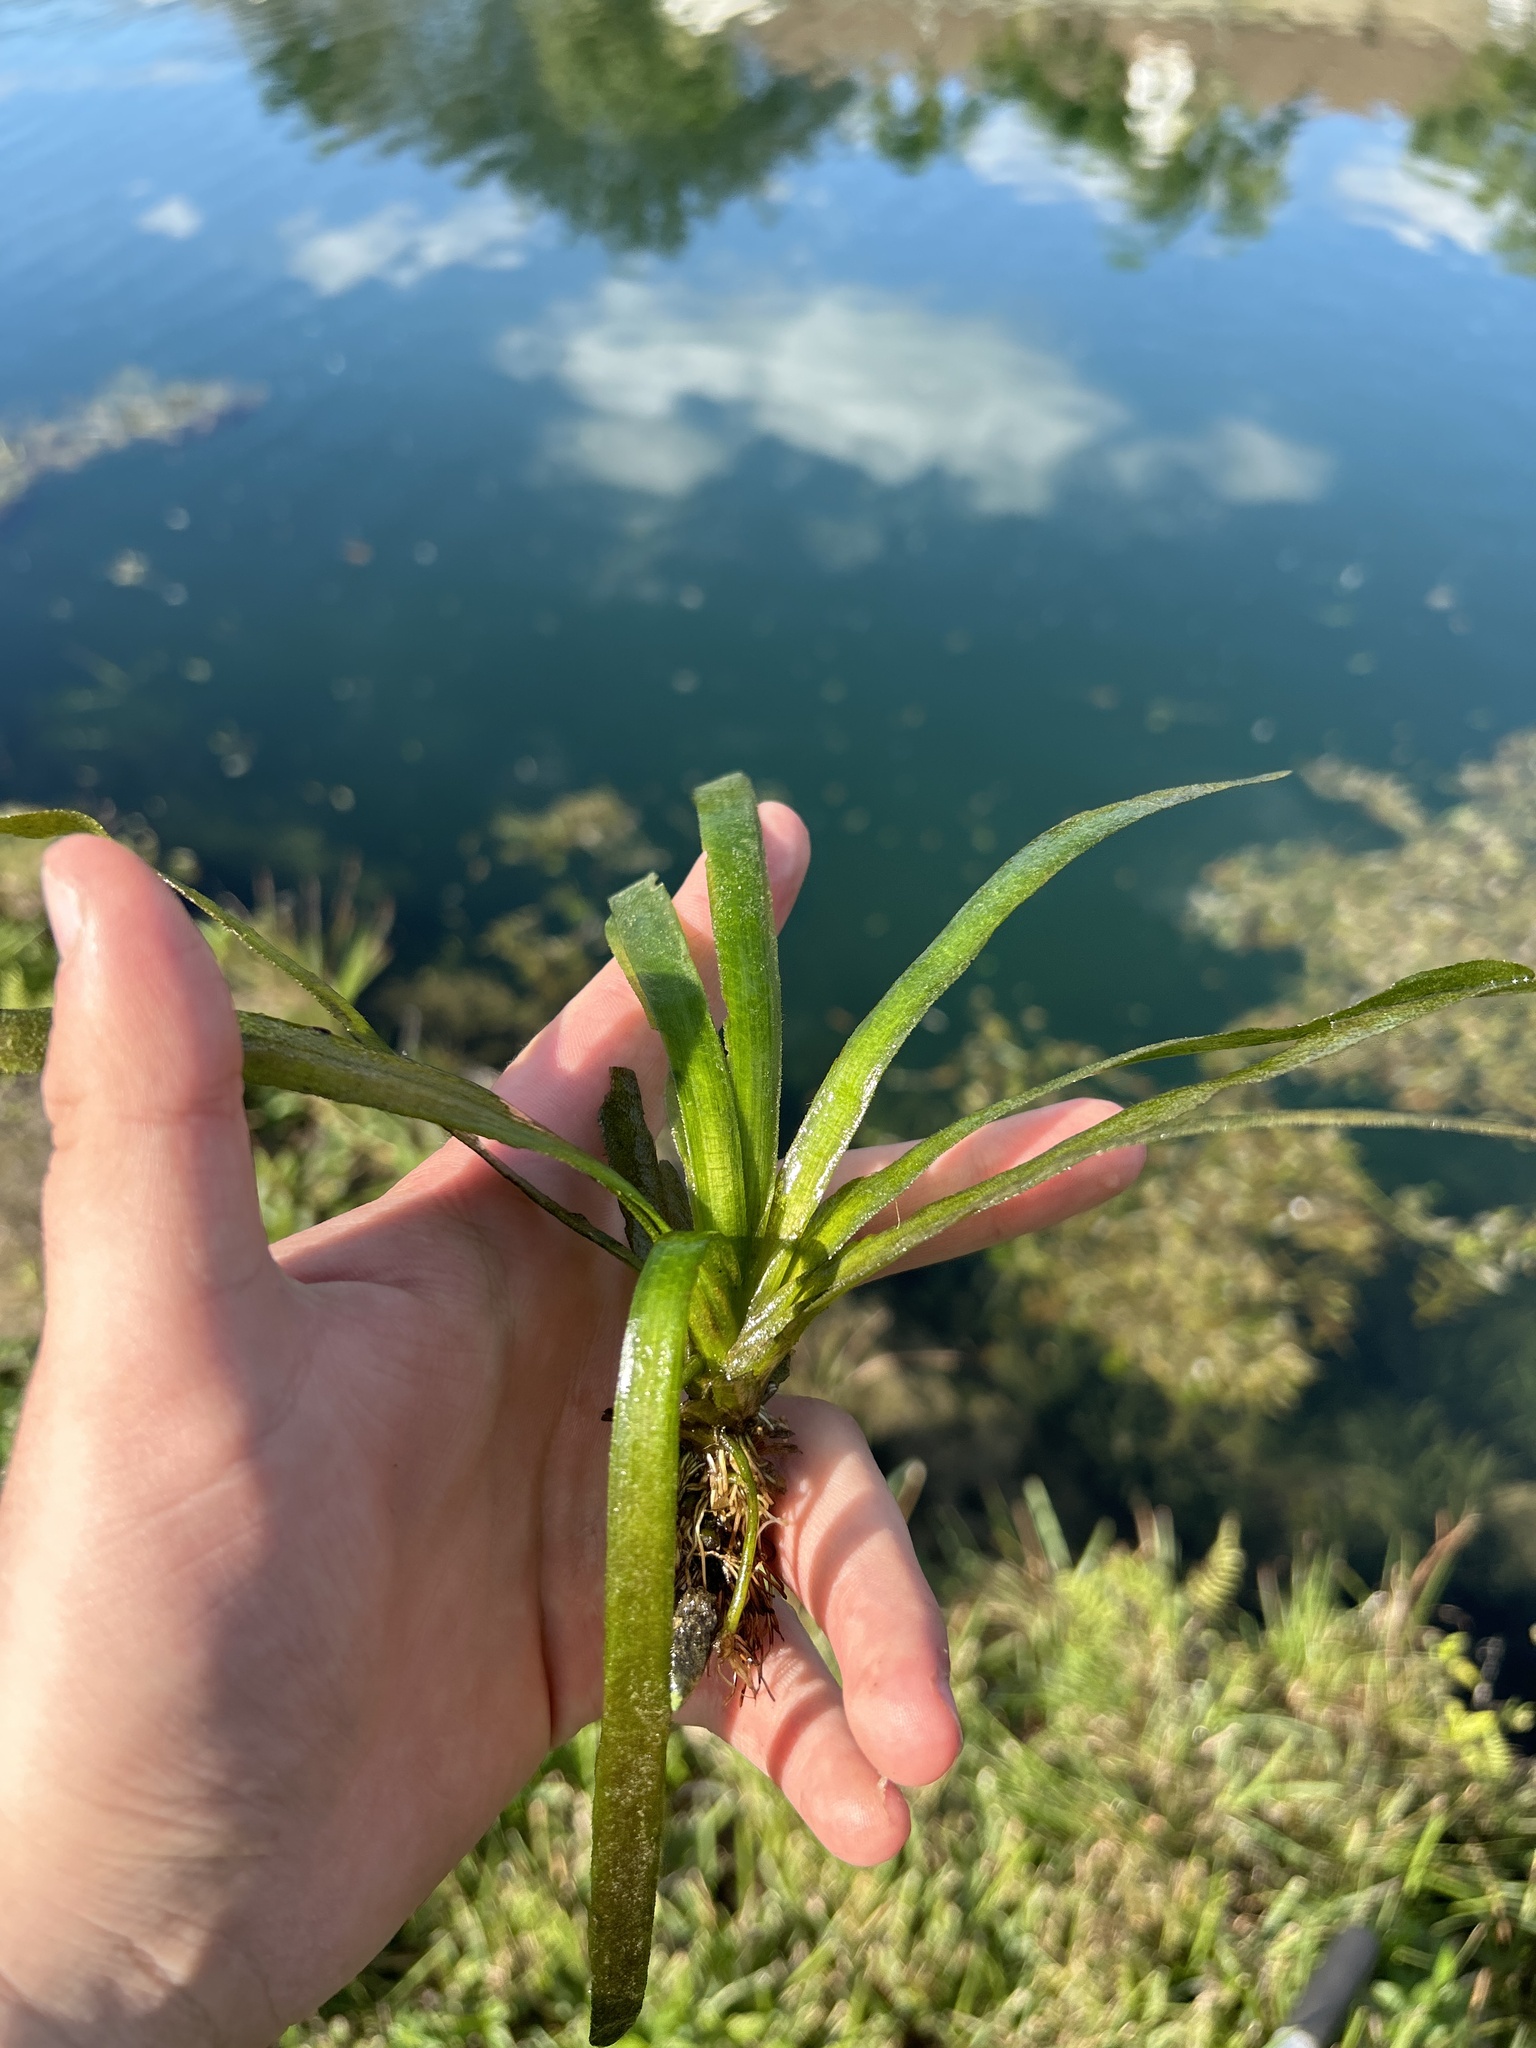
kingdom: Plantae
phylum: Tracheophyta
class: Liliopsida
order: Alismatales
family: Hydrocharitaceae
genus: Vallisneria
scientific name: Vallisneria americana
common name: American eelgrass
